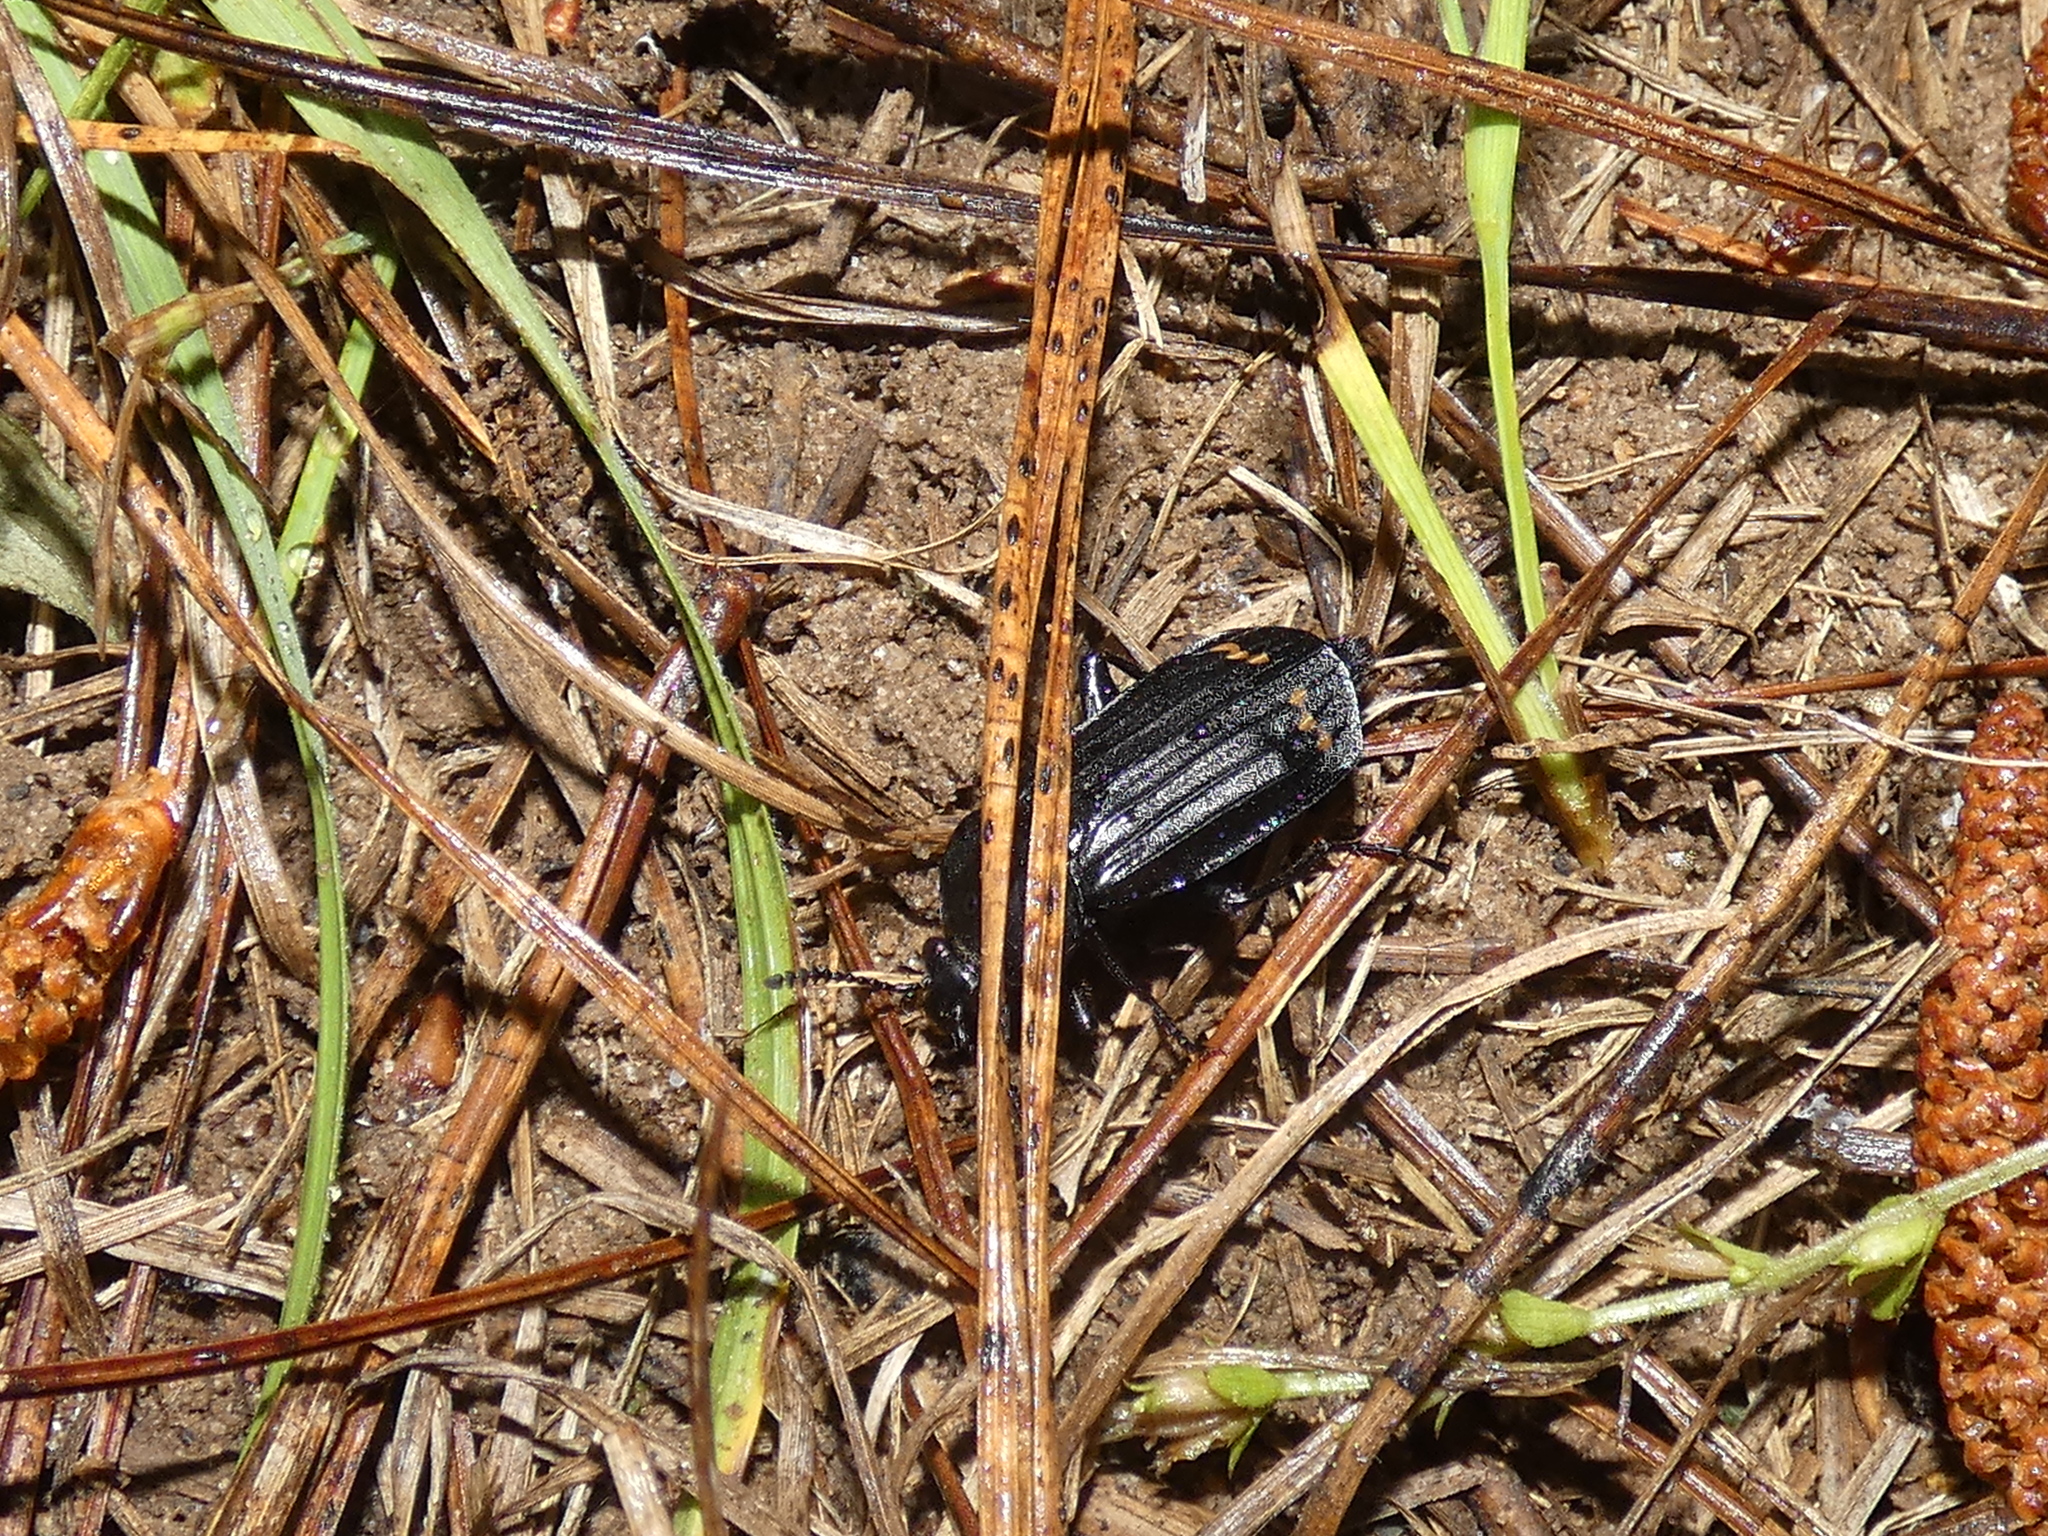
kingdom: Animalia
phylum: Arthropoda
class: Insecta
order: Coleoptera
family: Staphylinidae
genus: Necrodes
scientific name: Necrodes surinamensis
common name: Red-lined carrion beetle
